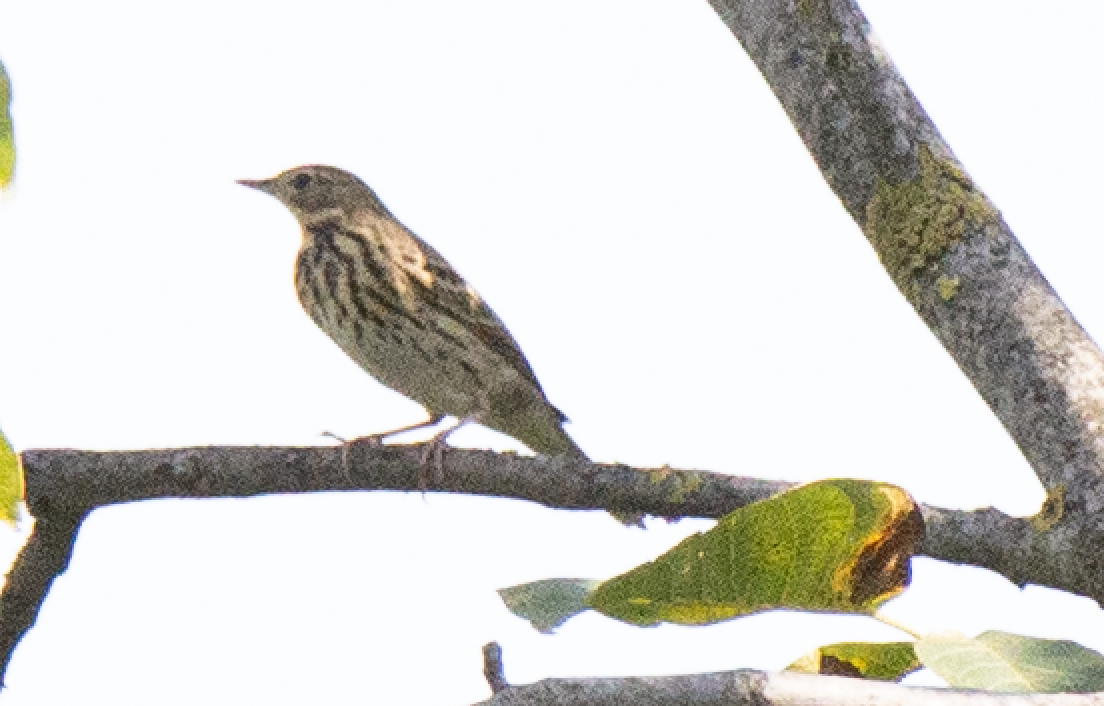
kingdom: Animalia
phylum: Chordata
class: Aves
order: Passeriformes
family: Motacillidae
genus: Anthus
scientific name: Anthus trivialis
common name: Tree pipit
